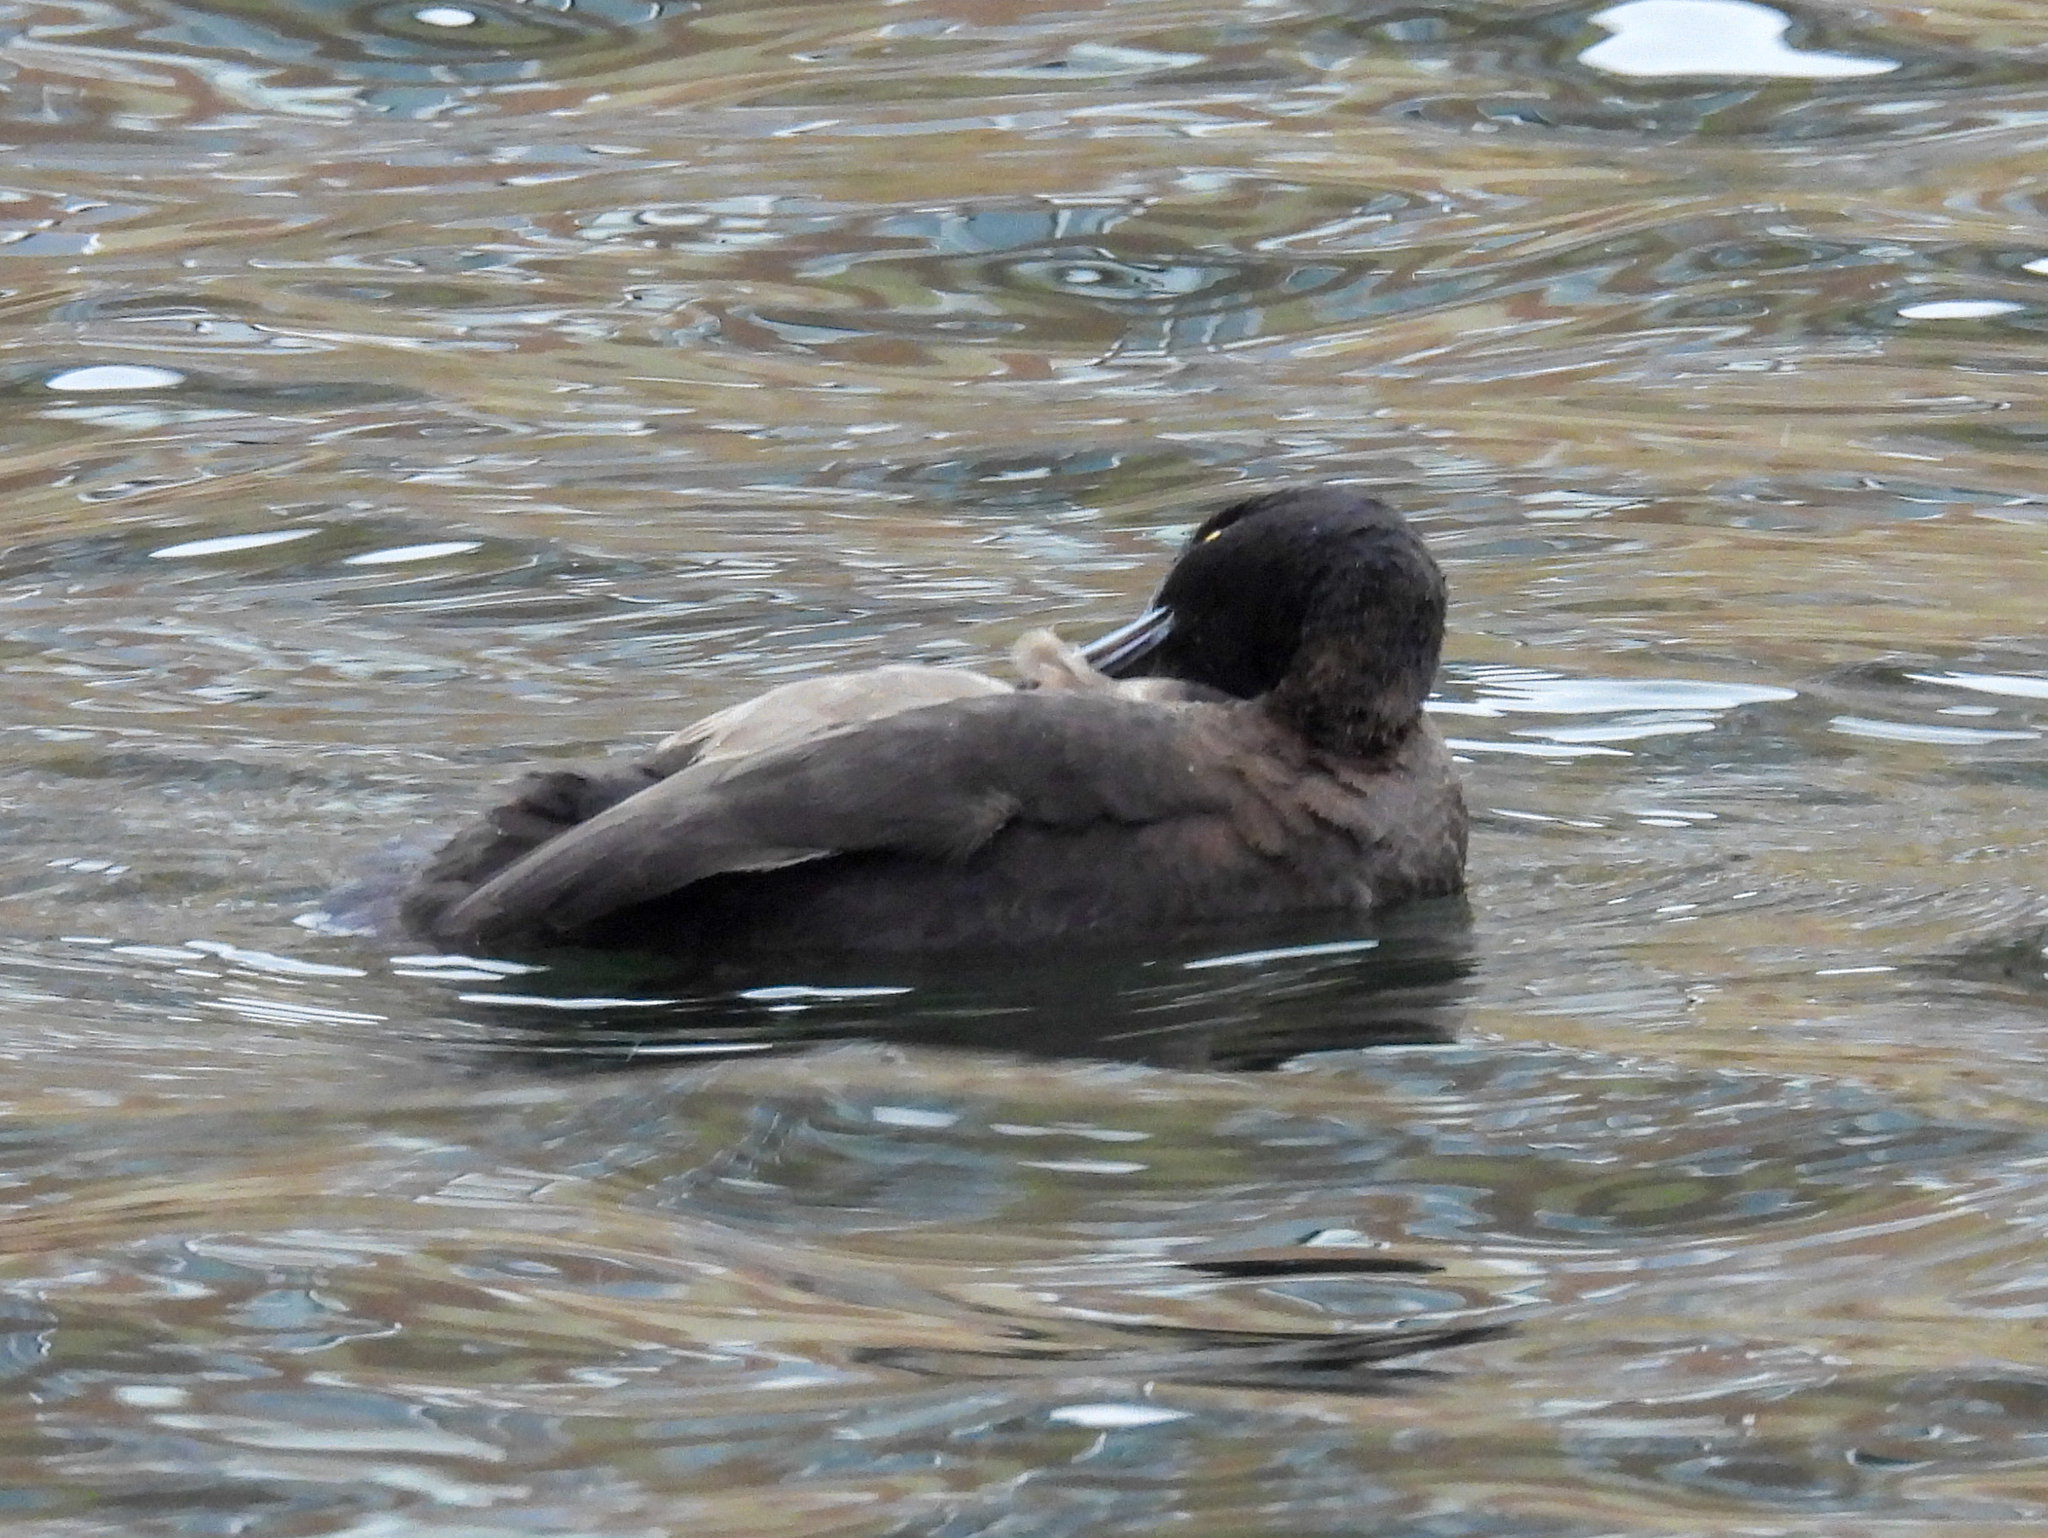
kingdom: Animalia
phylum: Chordata
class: Aves
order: Anseriformes
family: Anatidae
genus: Aythya
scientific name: Aythya fuligula
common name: Tufted duck
